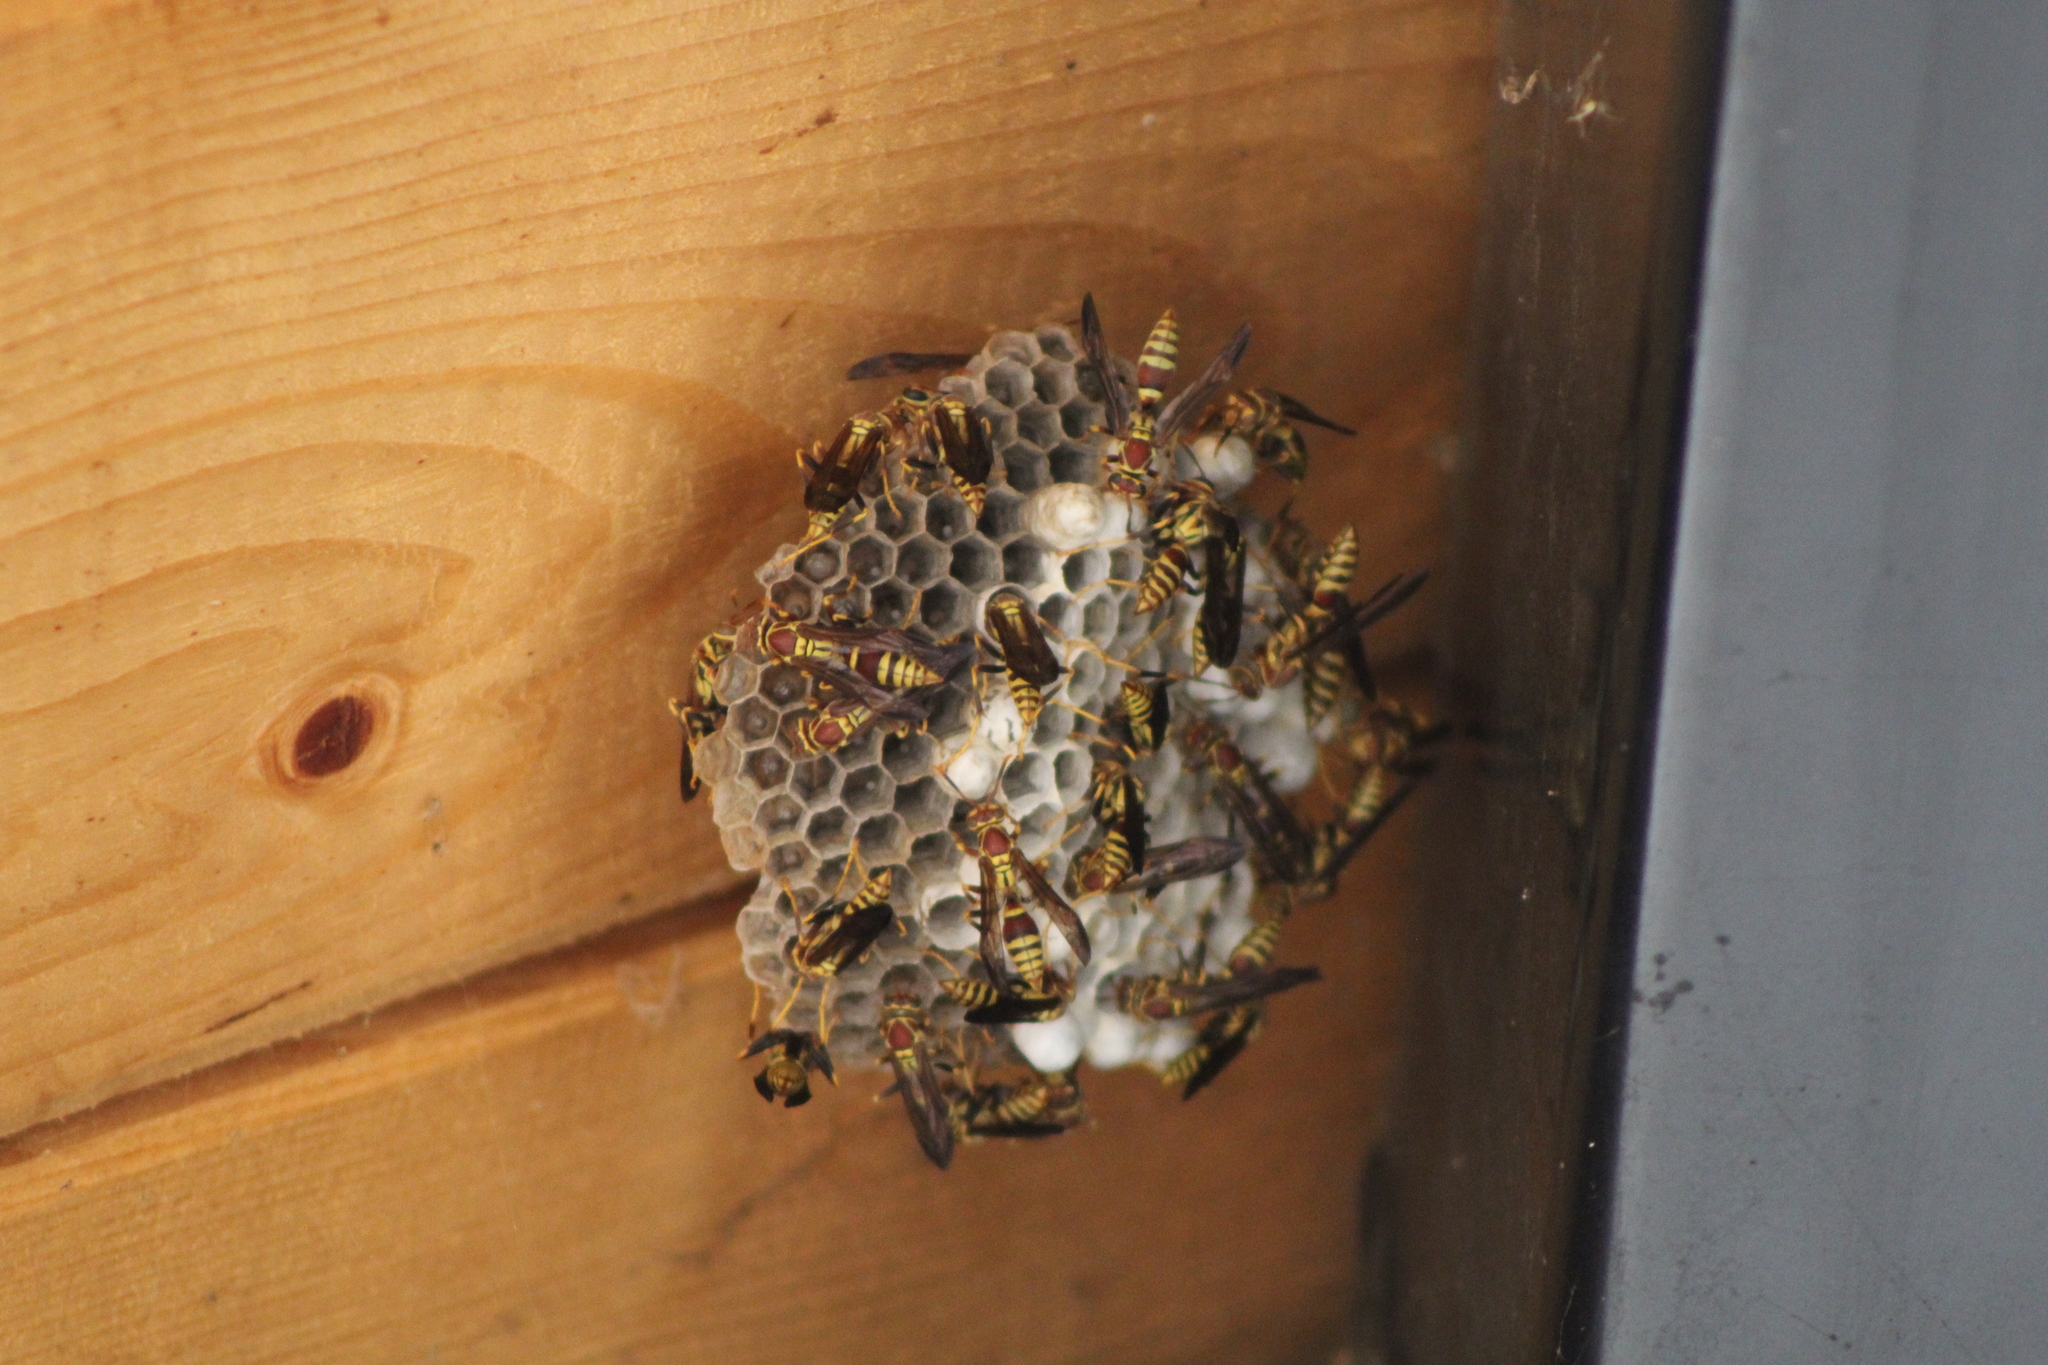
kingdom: Animalia
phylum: Arthropoda
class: Insecta
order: Hymenoptera
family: Eumenidae
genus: Polistes
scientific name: Polistes exclamans
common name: Paper wasp
